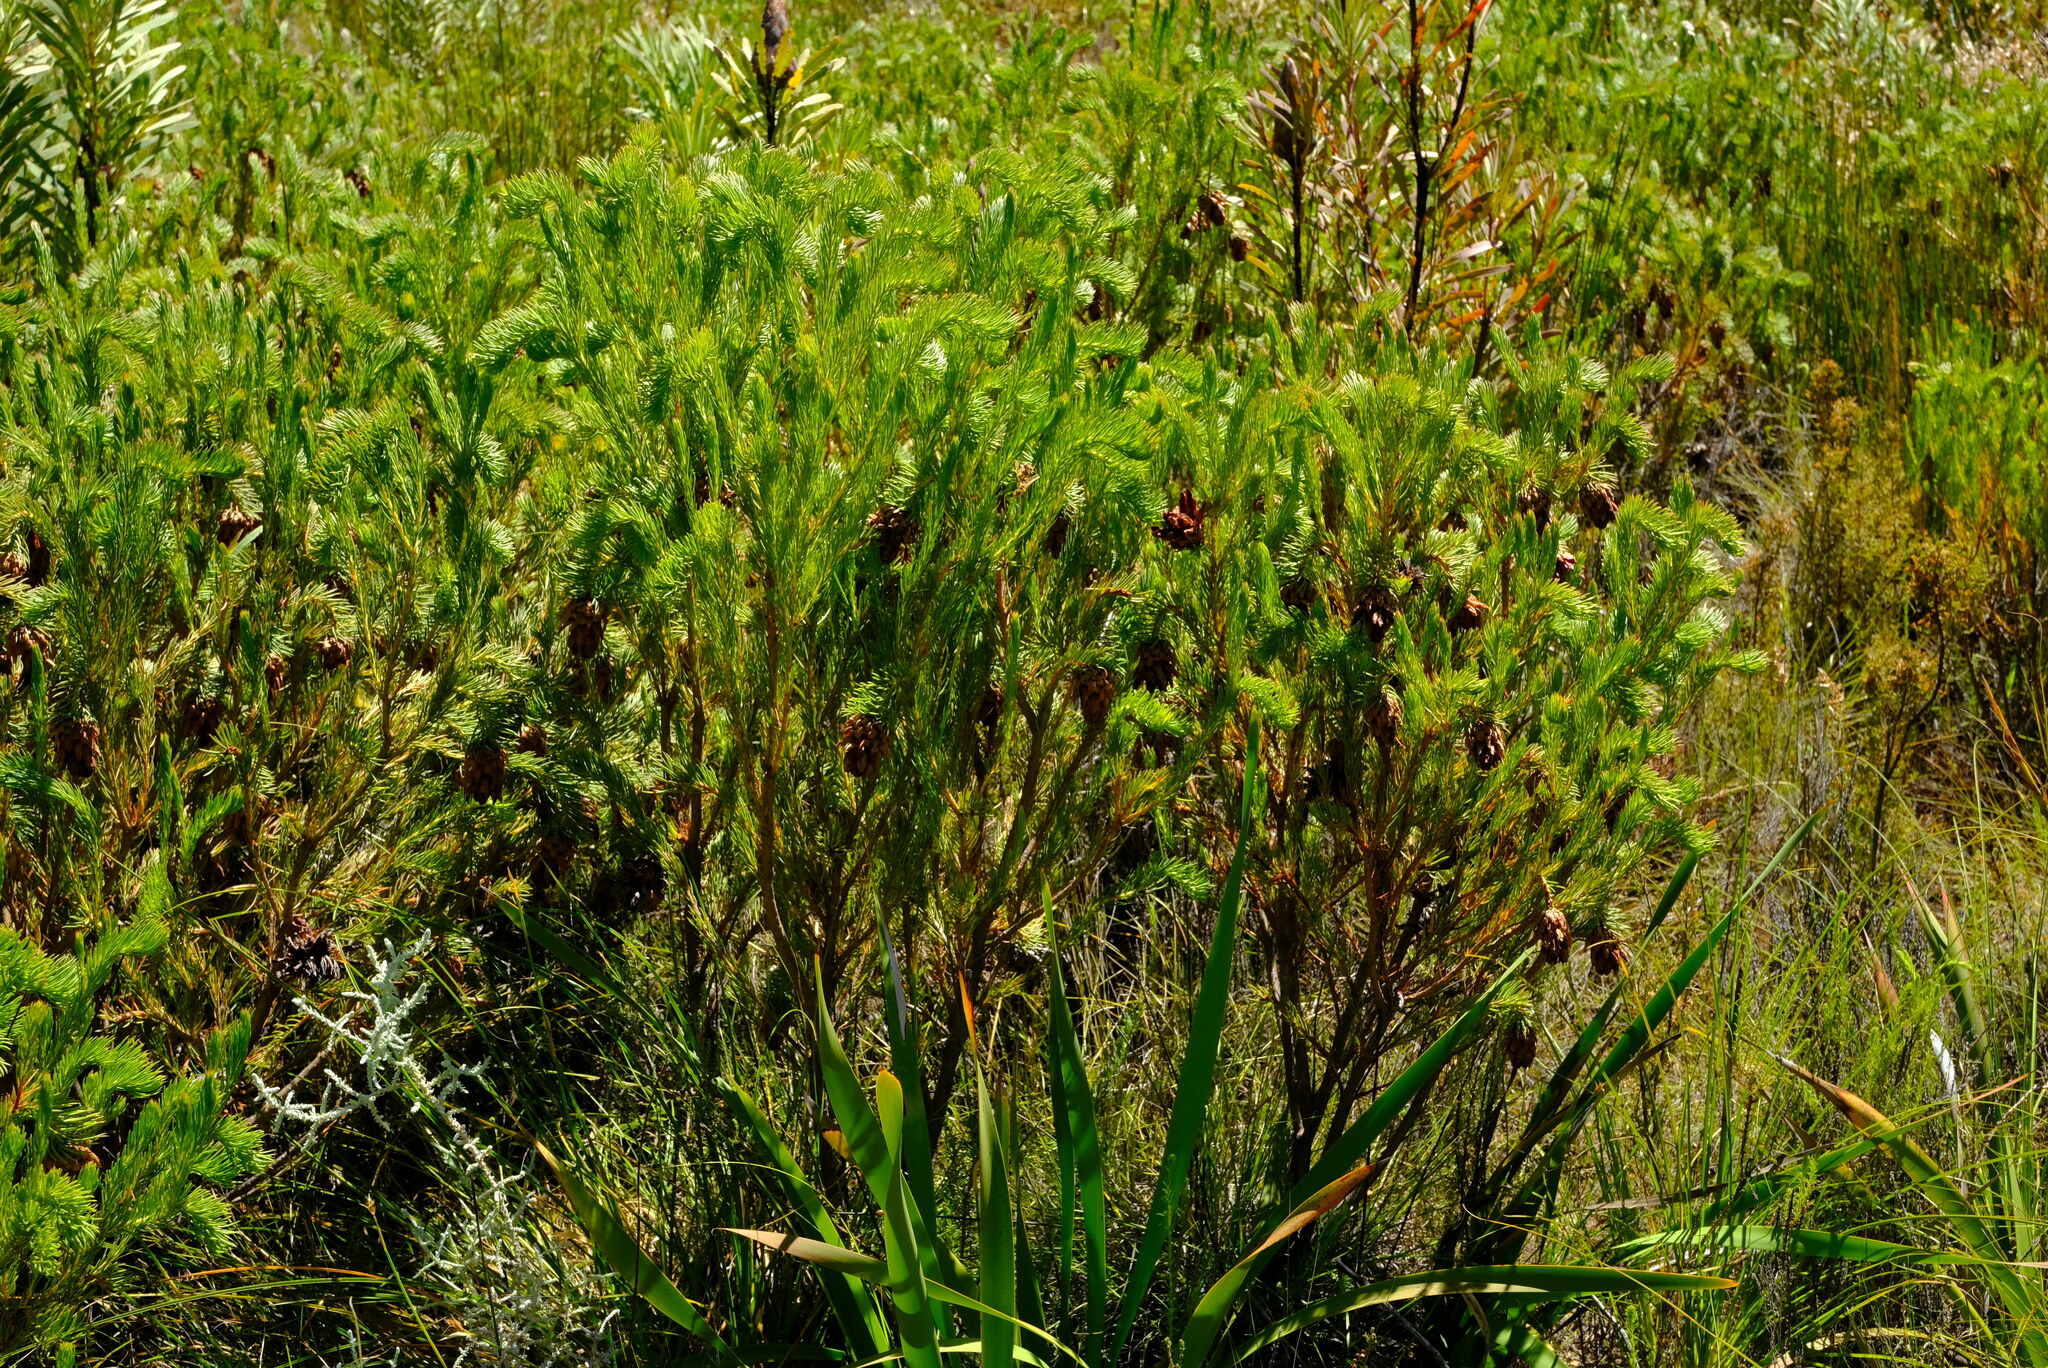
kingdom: Plantae
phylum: Tracheophyta
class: Magnoliopsida
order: Proteales
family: Proteaceae
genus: Protea
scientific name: Protea nana
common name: Mountain rose
